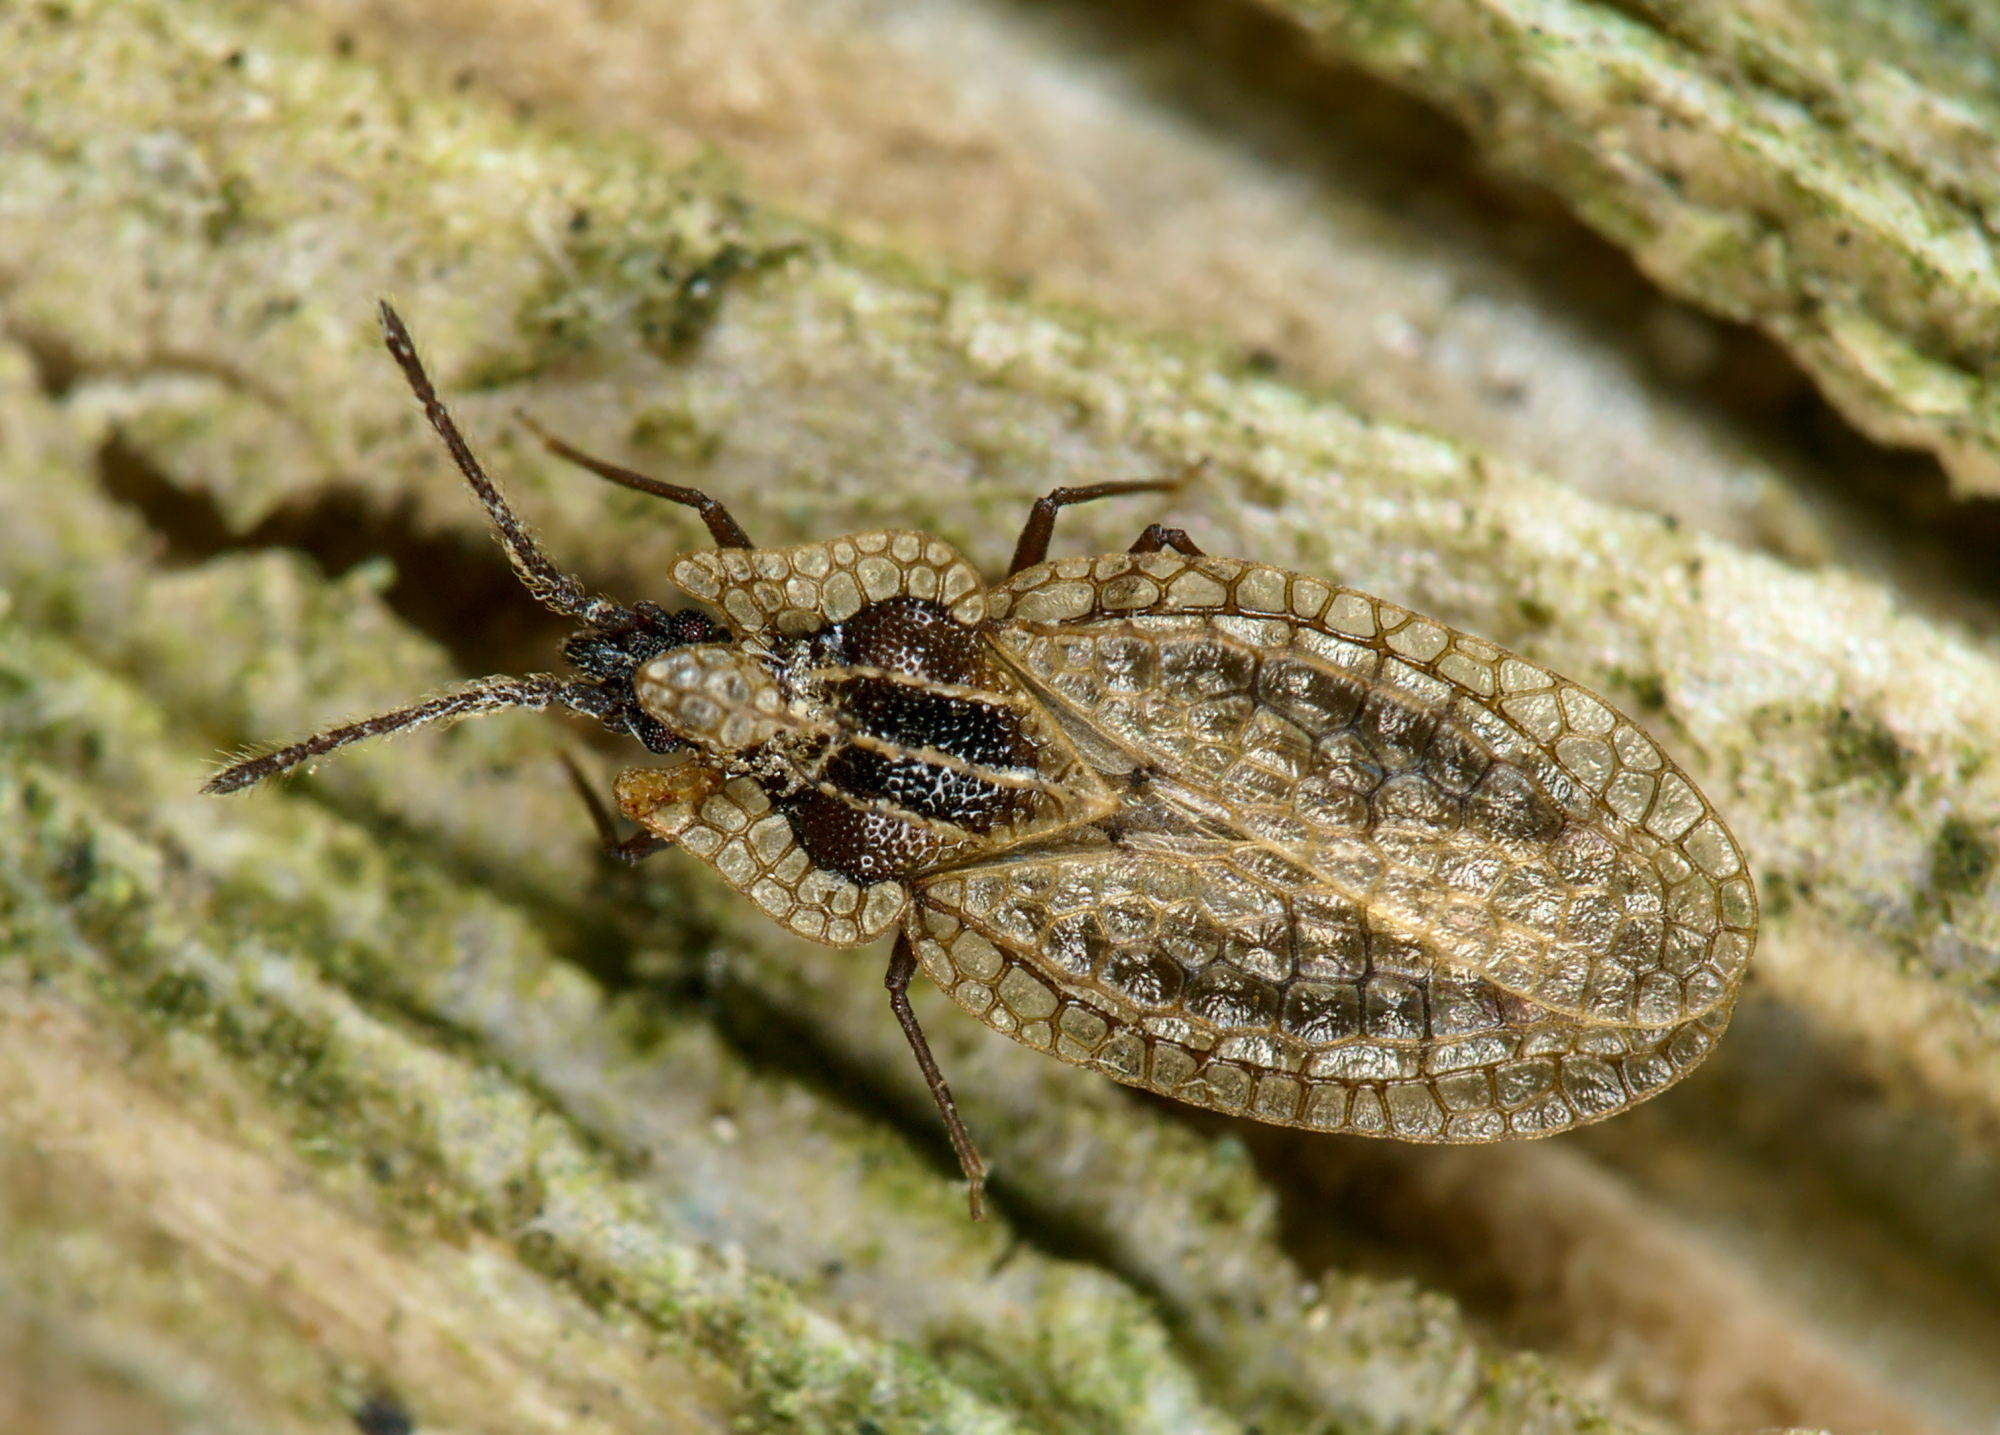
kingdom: Animalia
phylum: Arthropoda
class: Insecta
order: Hemiptera
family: Tingidae
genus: Derephysia
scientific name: Derephysia sinuatocollis
